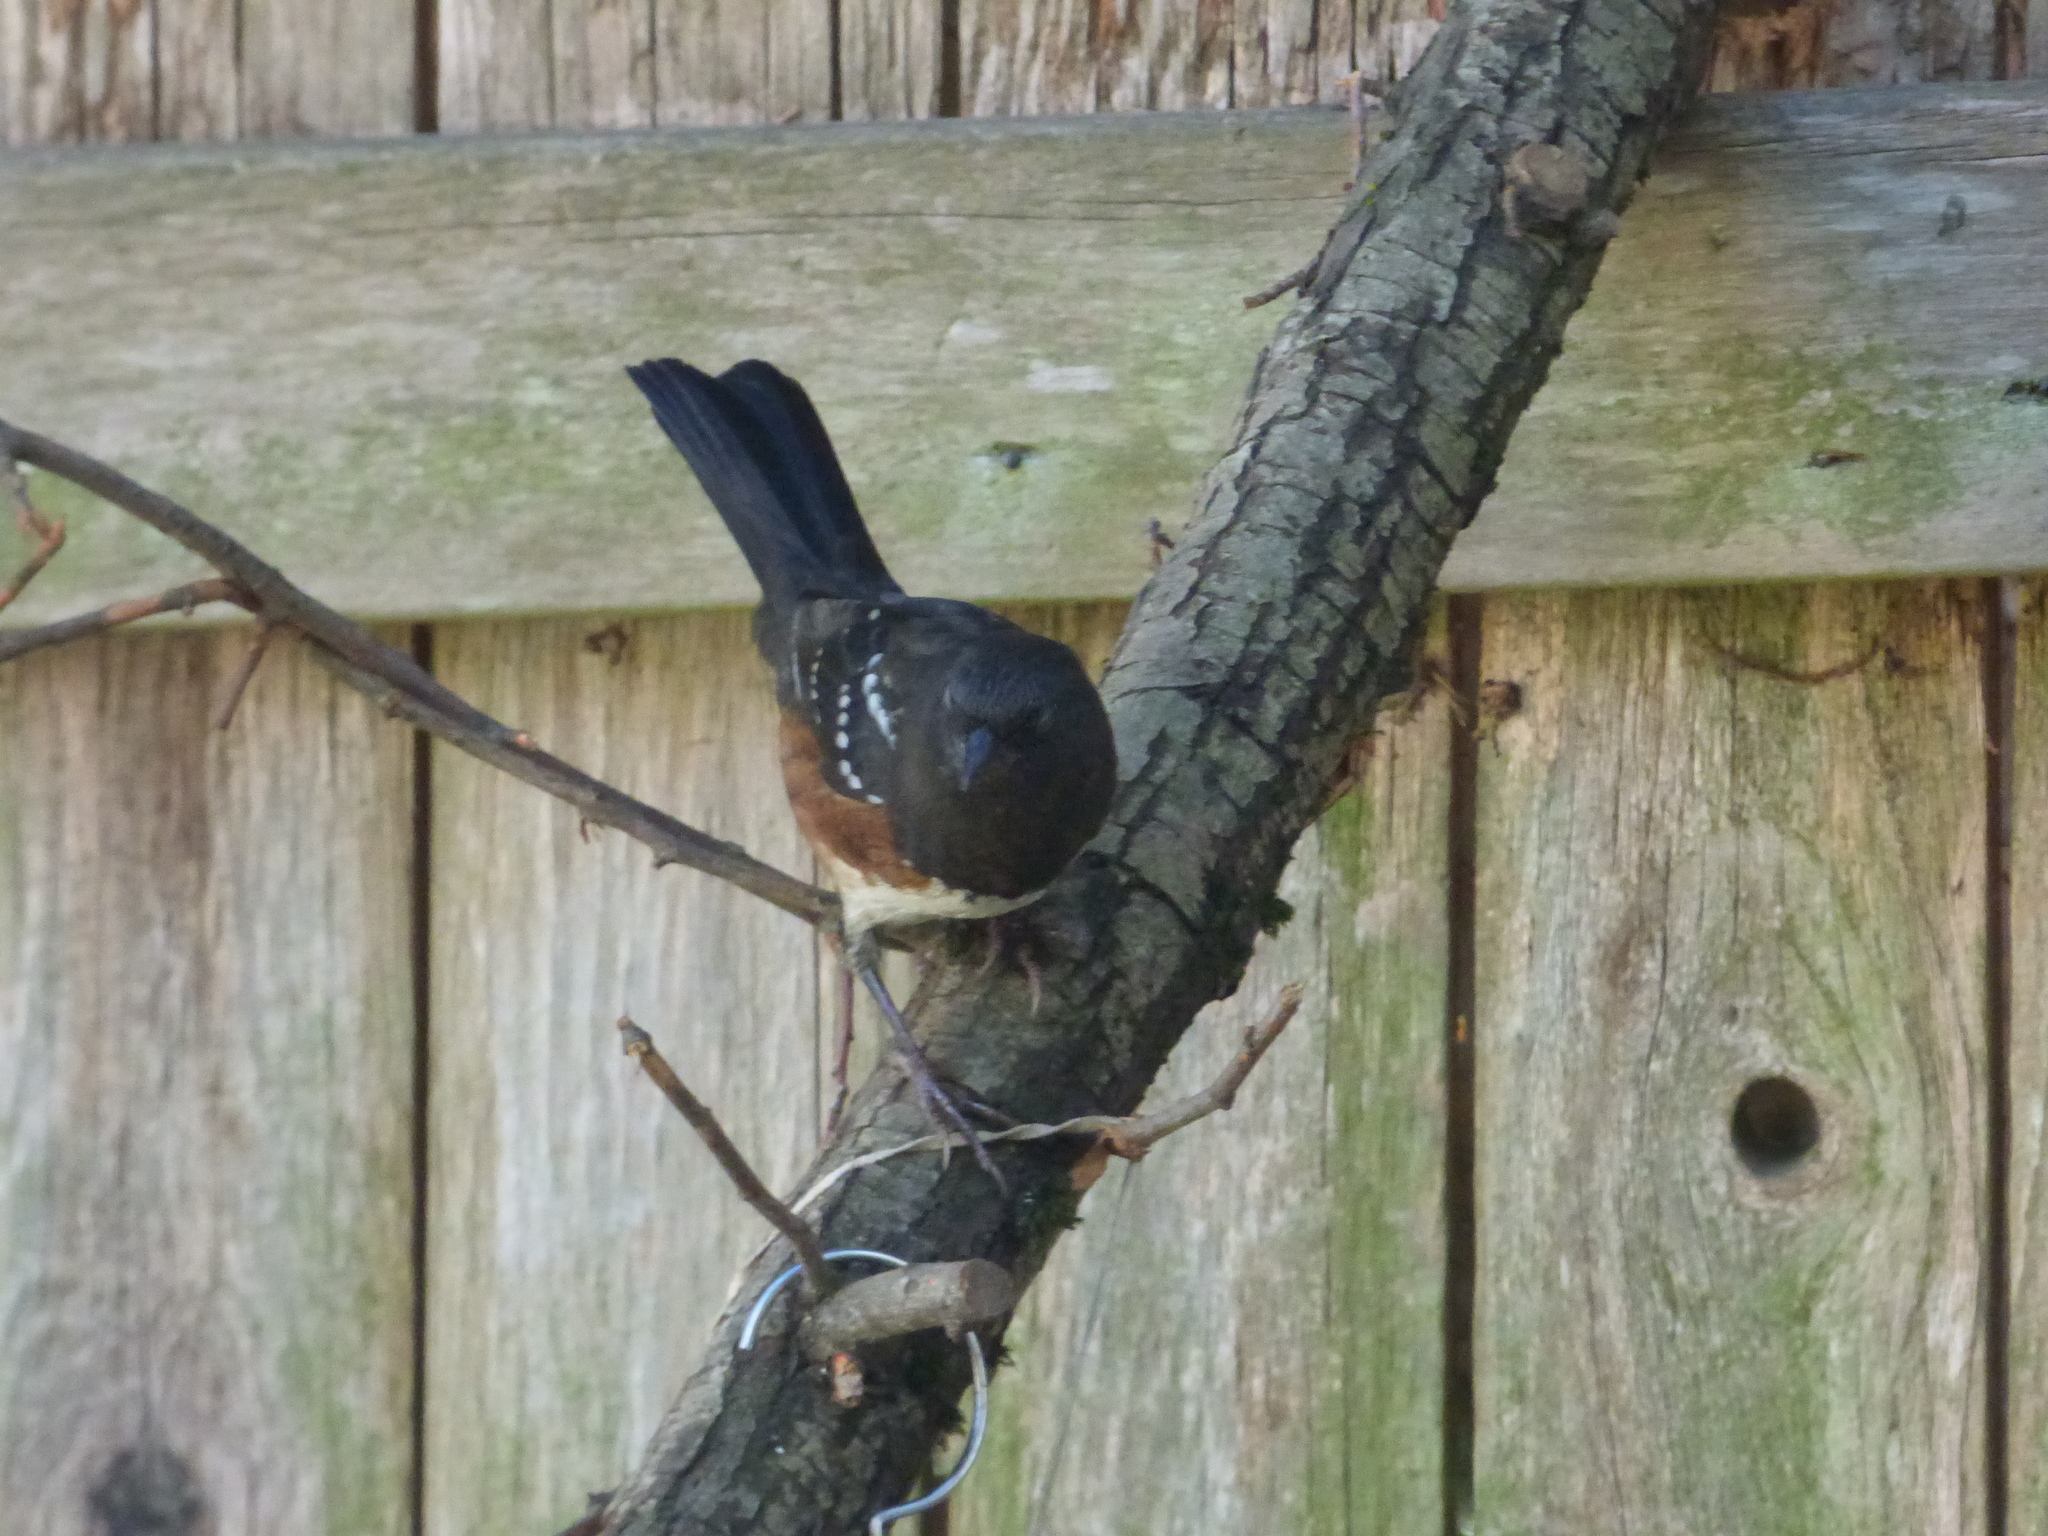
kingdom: Animalia
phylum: Chordata
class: Aves
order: Passeriformes
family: Passerellidae
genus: Pipilo
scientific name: Pipilo maculatus
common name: Spotted towhee
